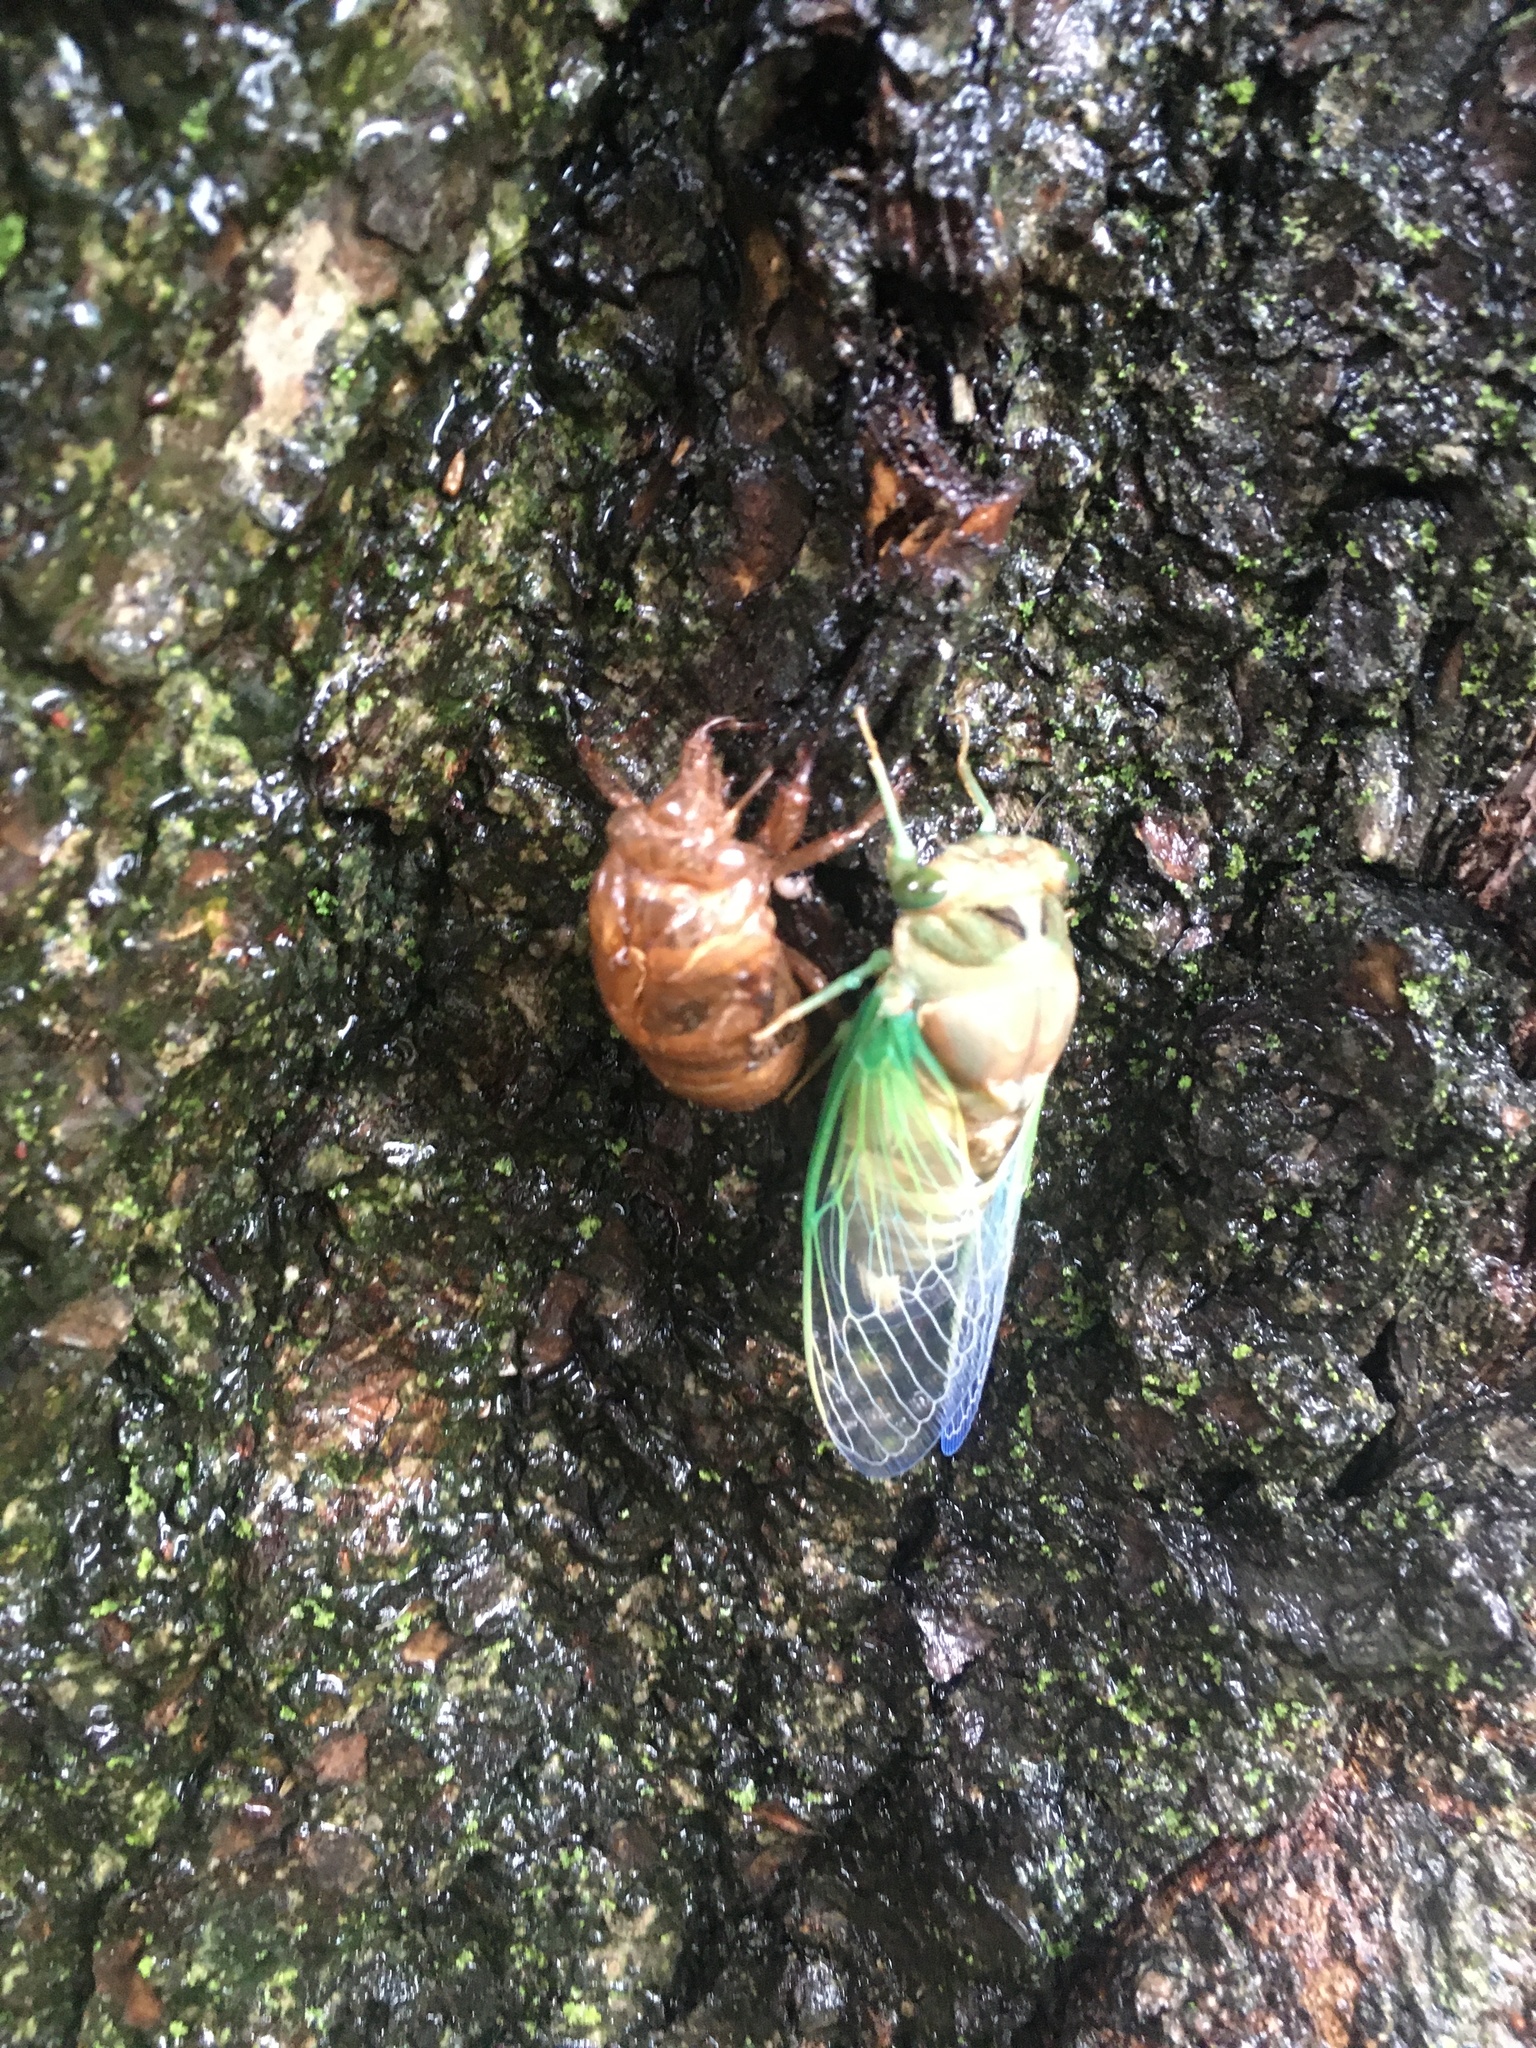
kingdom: Animalia
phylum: Arthropoda
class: Insecta
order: Hemiptera
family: Cicadidae
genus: Neotibicen
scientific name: Neotibicen tibicen
